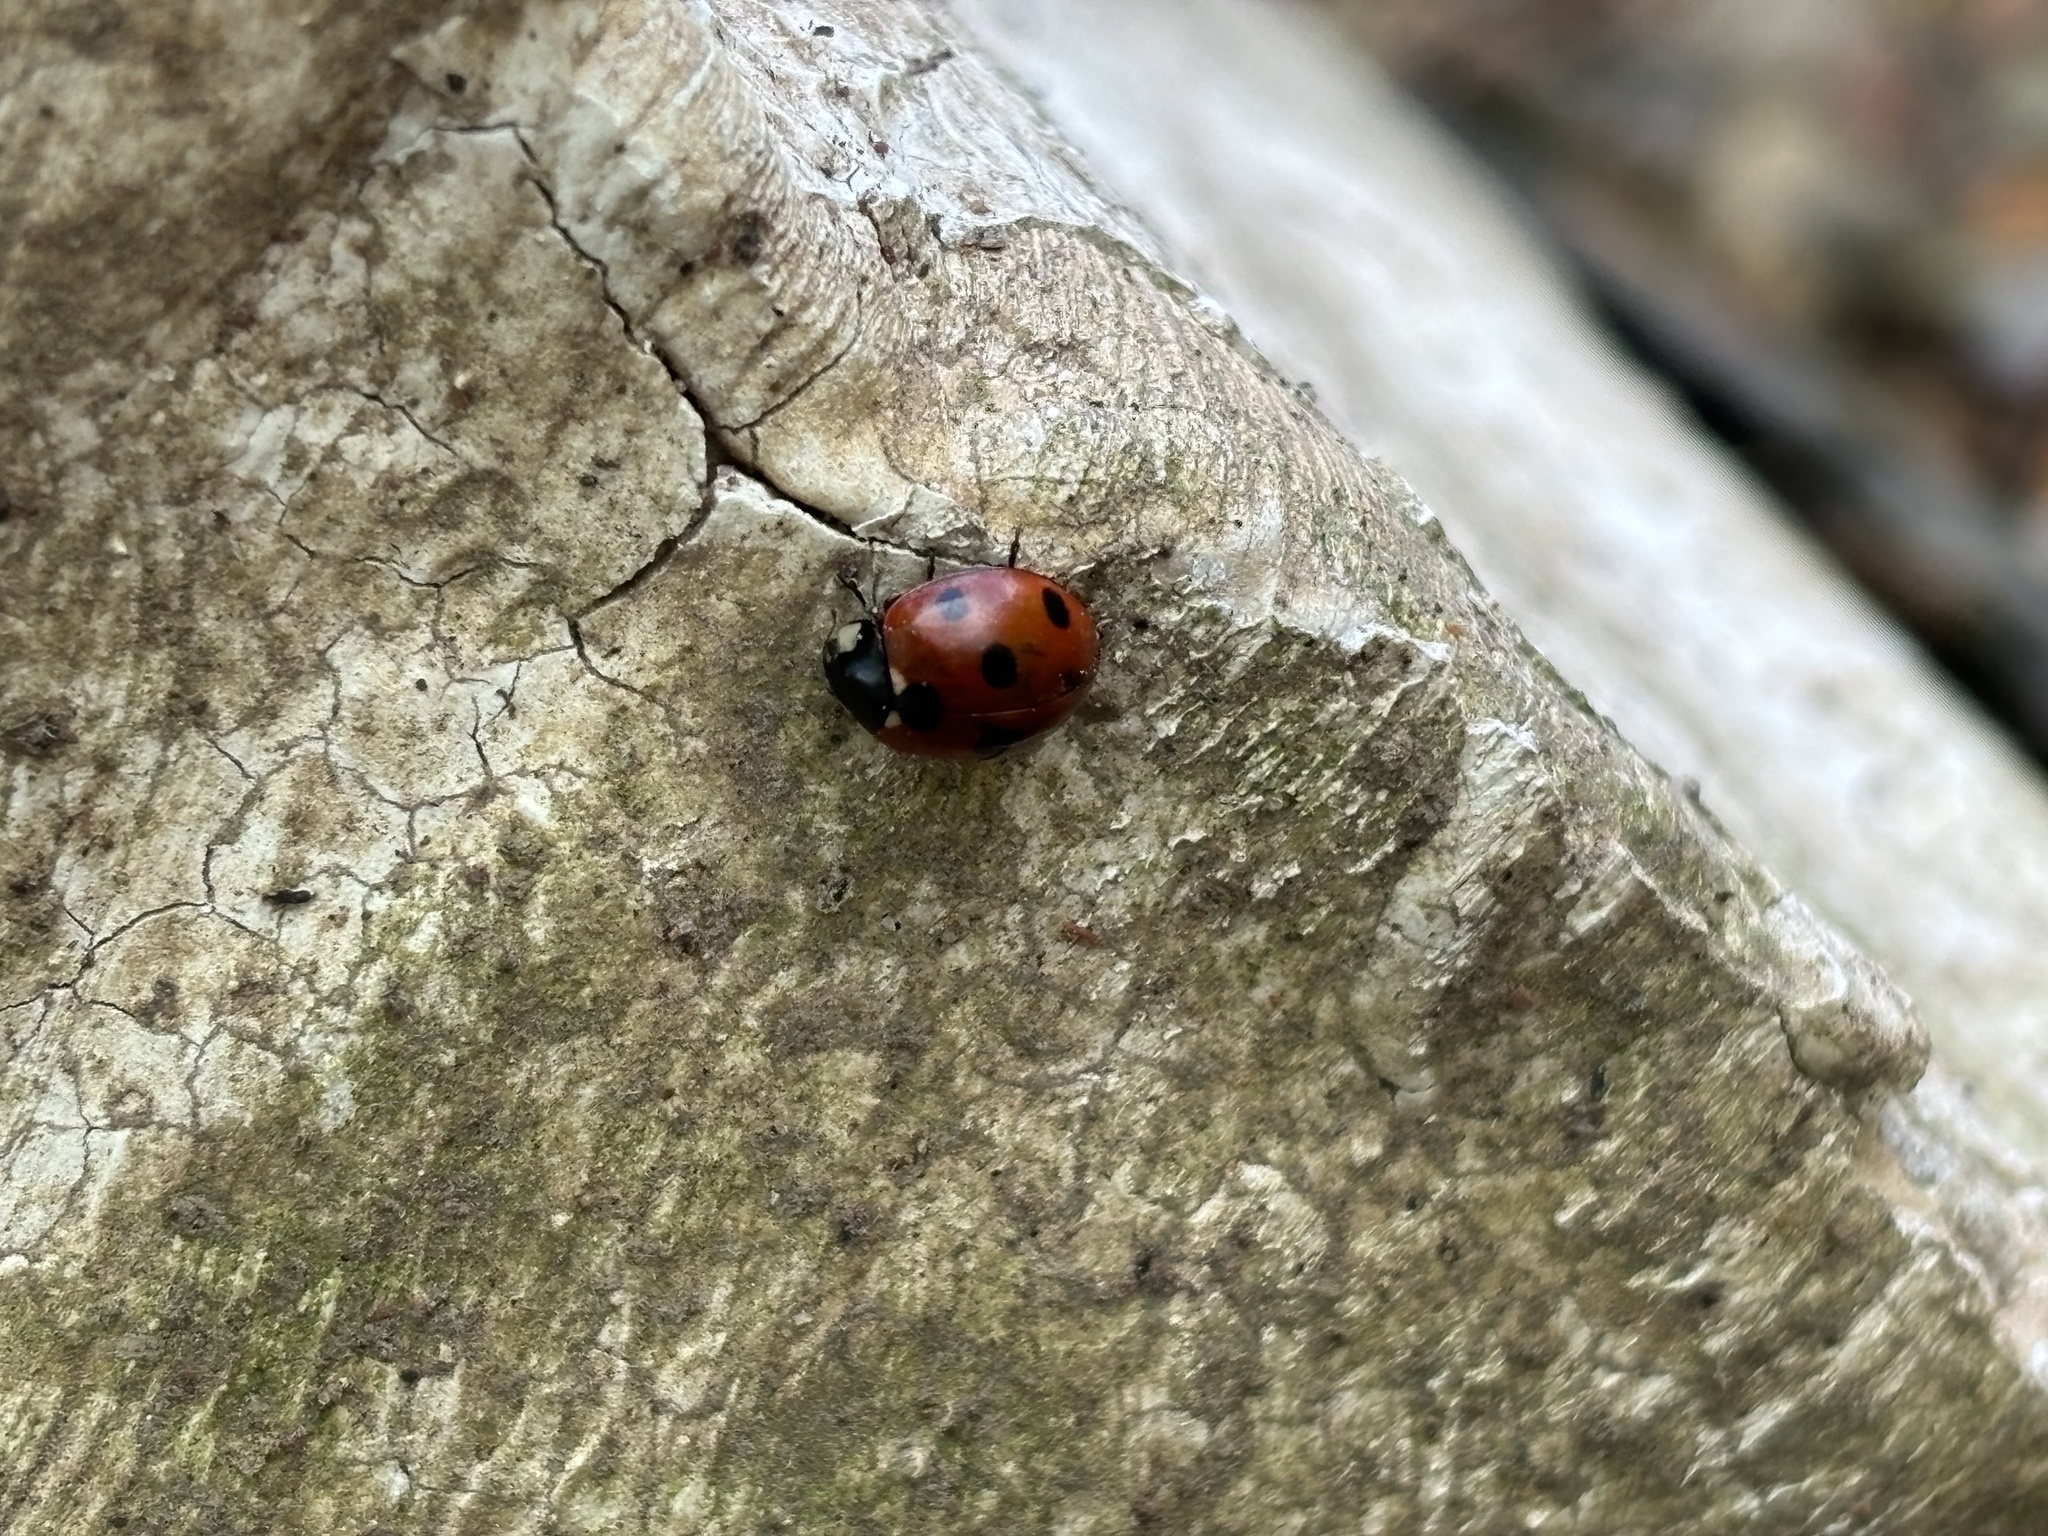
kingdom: Animalia
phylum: Arthropoda
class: Insecta
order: Coleoptera
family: Coccinellidae
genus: Coccinella
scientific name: Coccinella septempunctata
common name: Sevenspotted lady beetle
